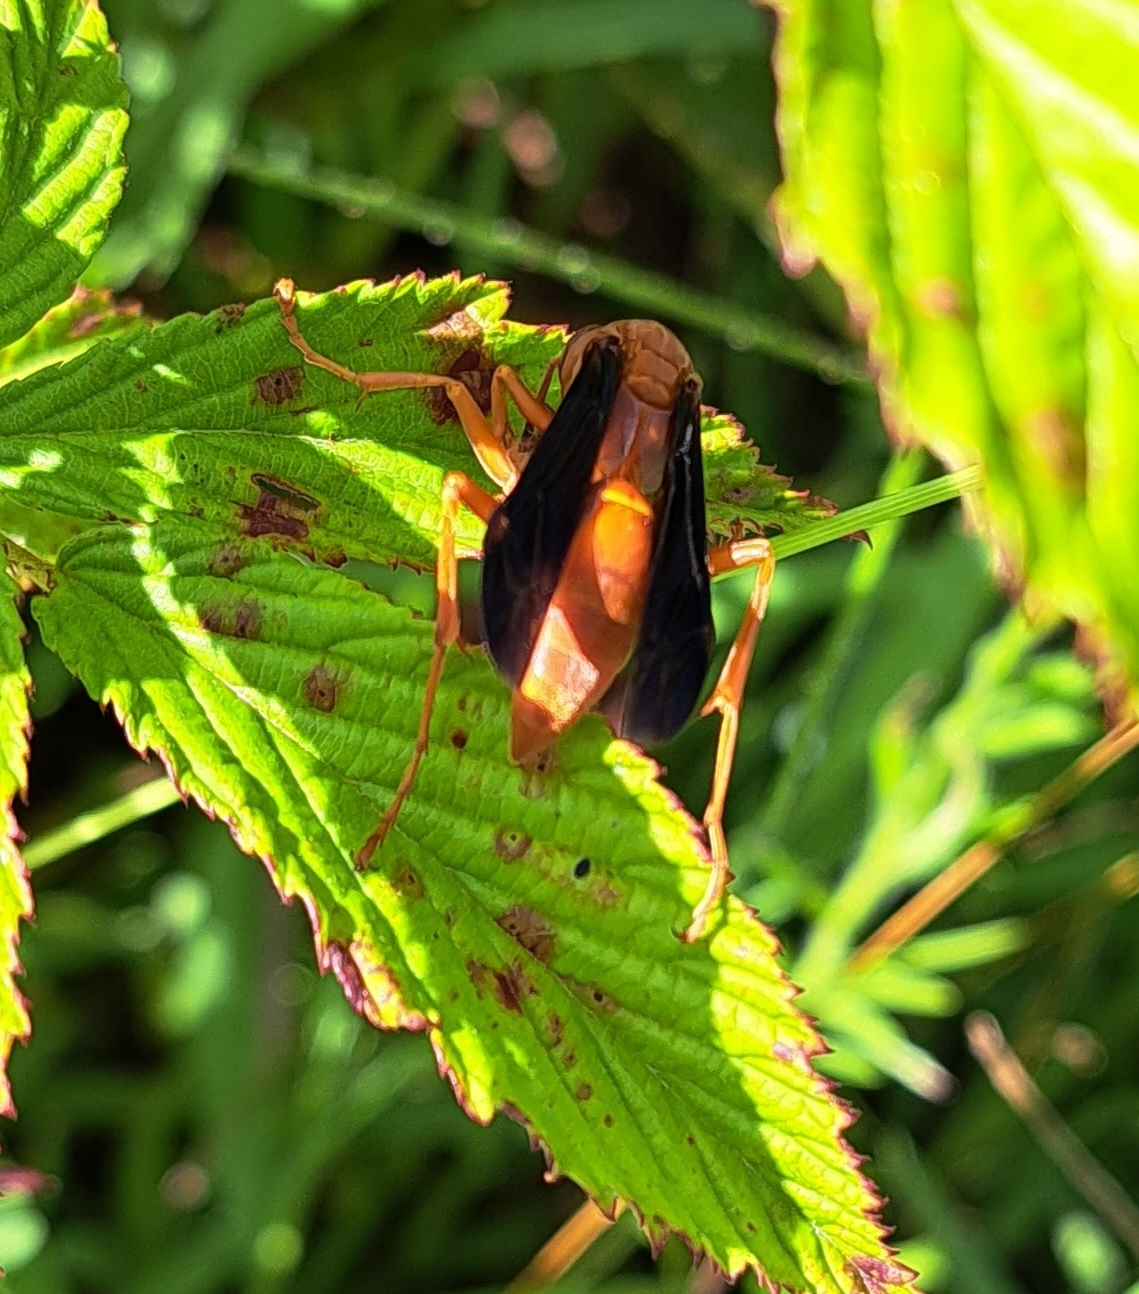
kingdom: Animalia
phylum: Arthropoda
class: Insecta
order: Hymenoptera
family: Eumenidae
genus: Polistes
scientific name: Polistes carolina
